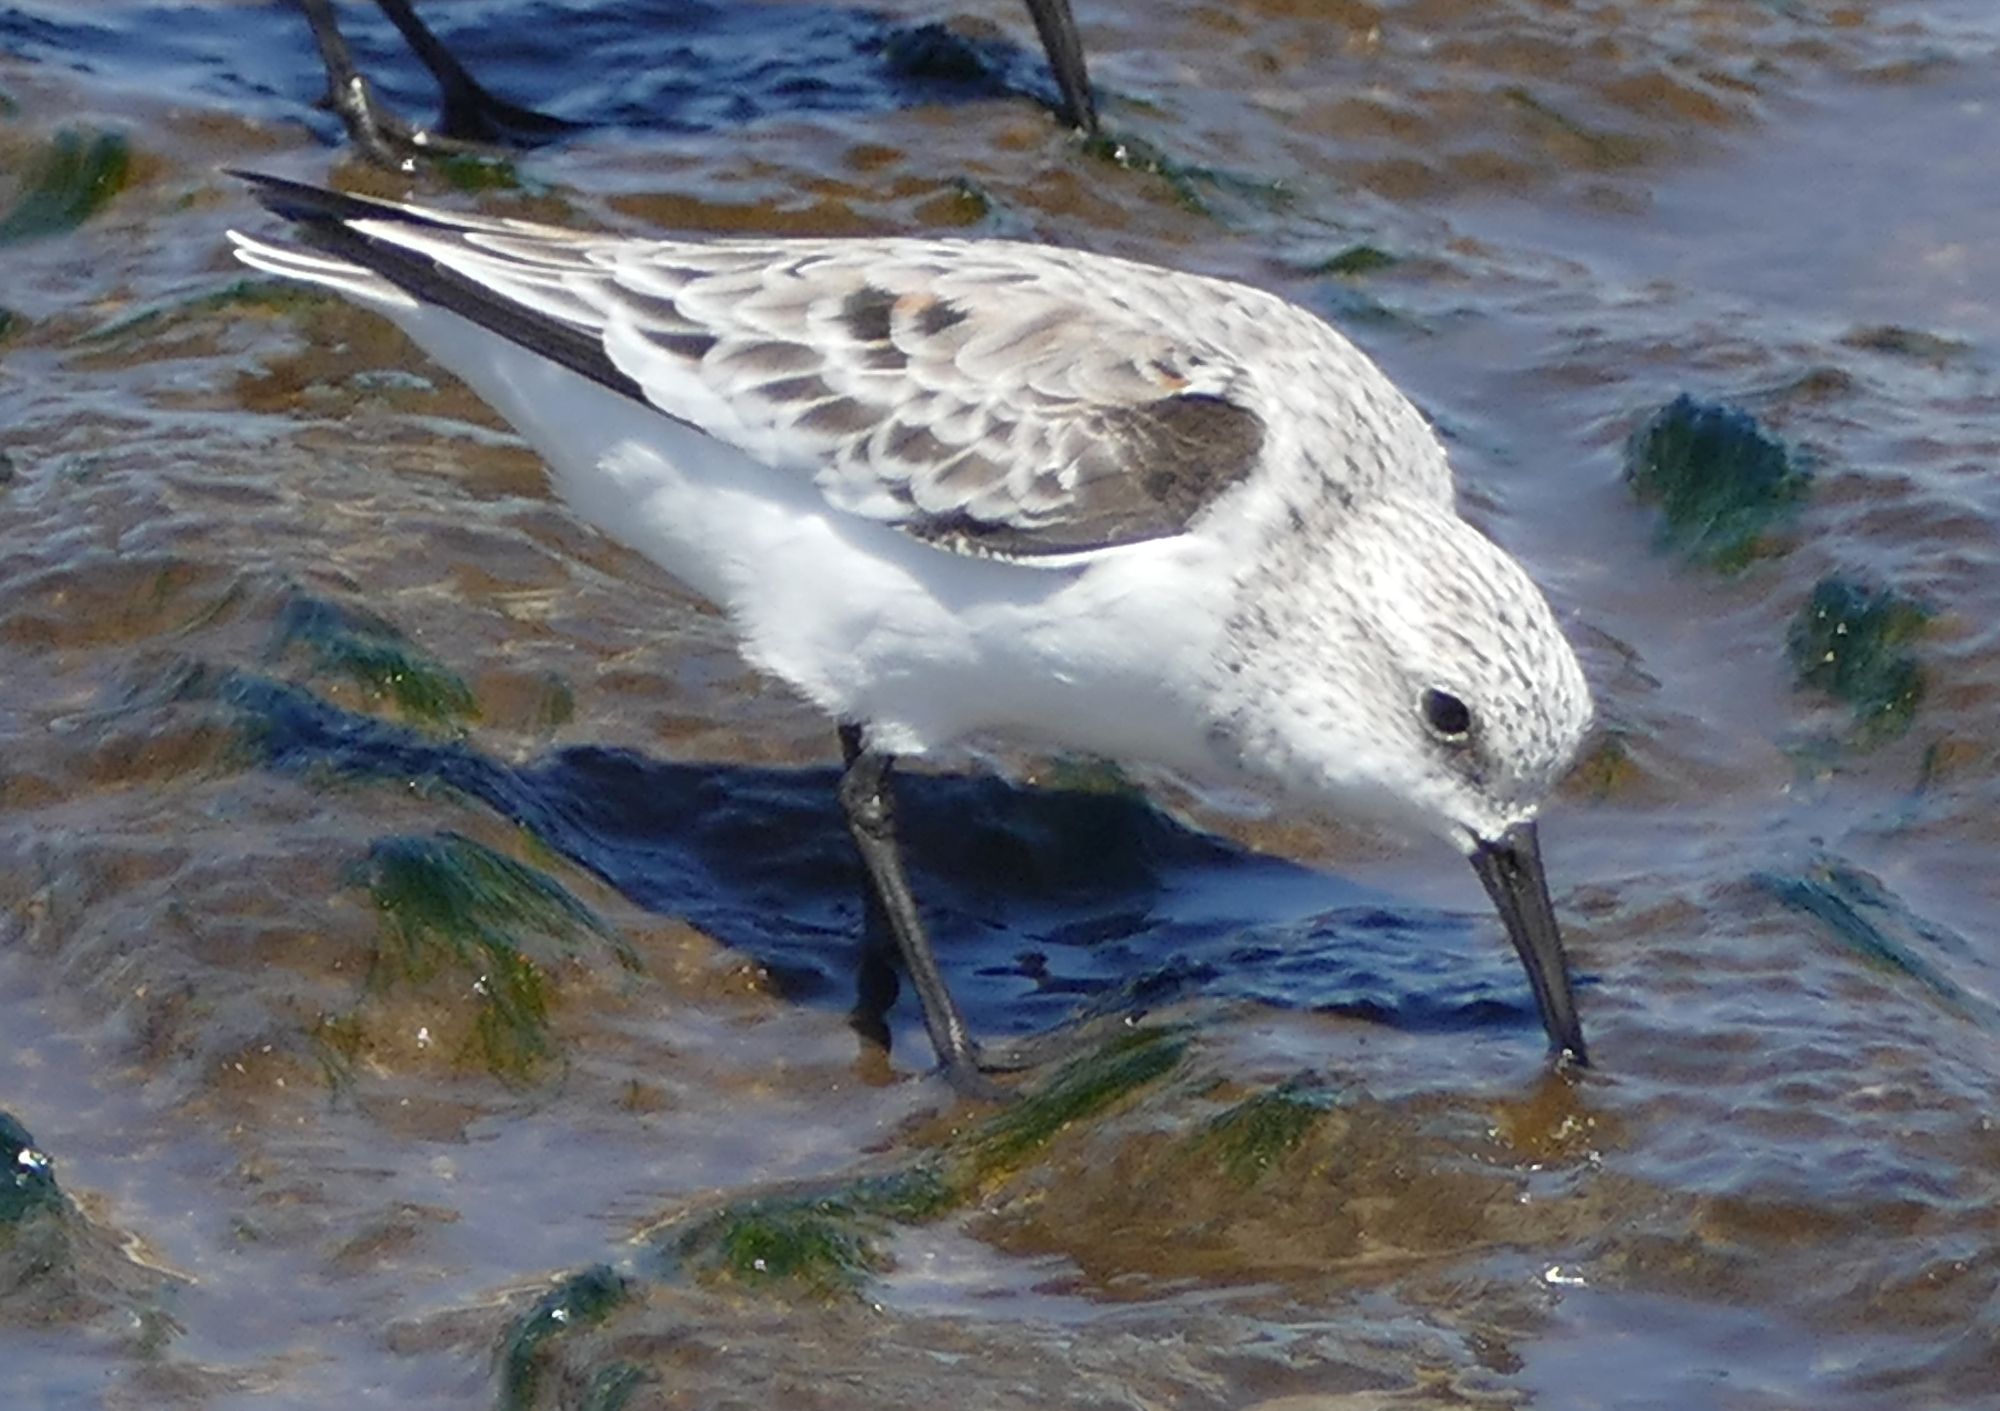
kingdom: Animalia
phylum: Chordata
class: Aves
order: Charadriiformes
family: Scolopacidae
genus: Calidris
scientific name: Calidris alba
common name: Sanderling
